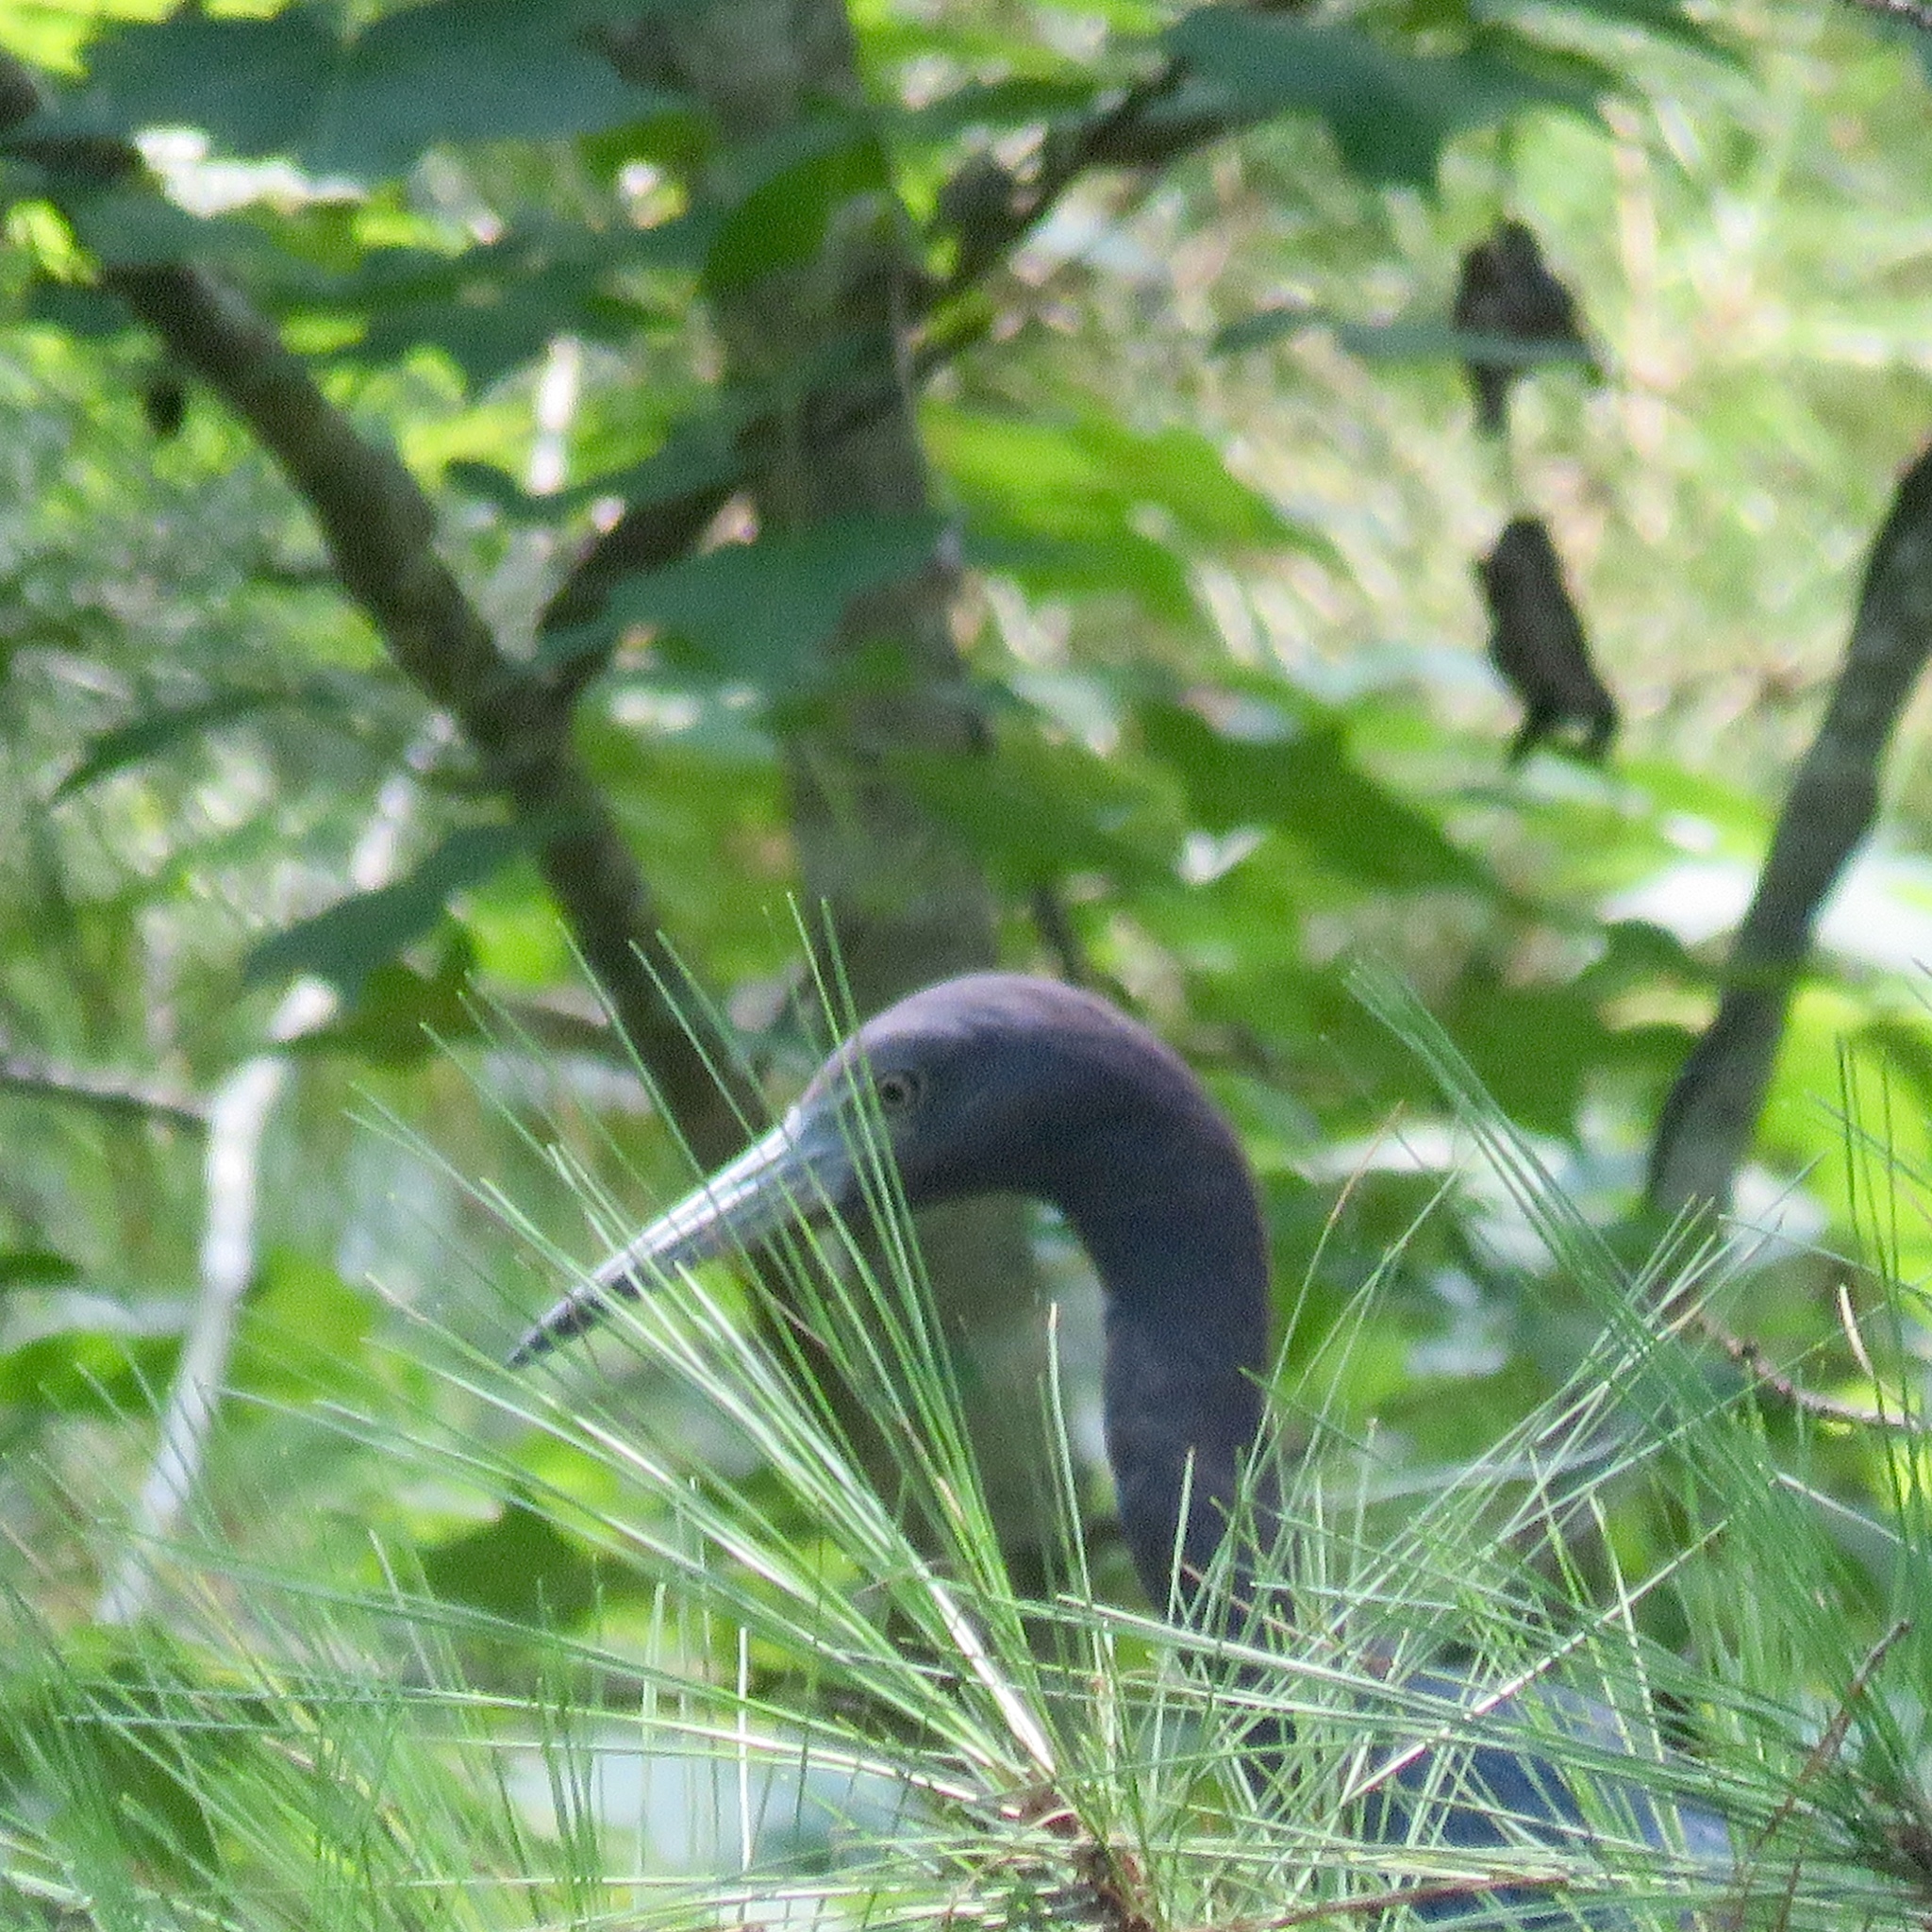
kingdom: Animalia
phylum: Chordata
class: Aves
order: Pelecaniformes
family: Ardeidae
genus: Egretta
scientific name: Egretta caerulea
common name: Little blue heron
